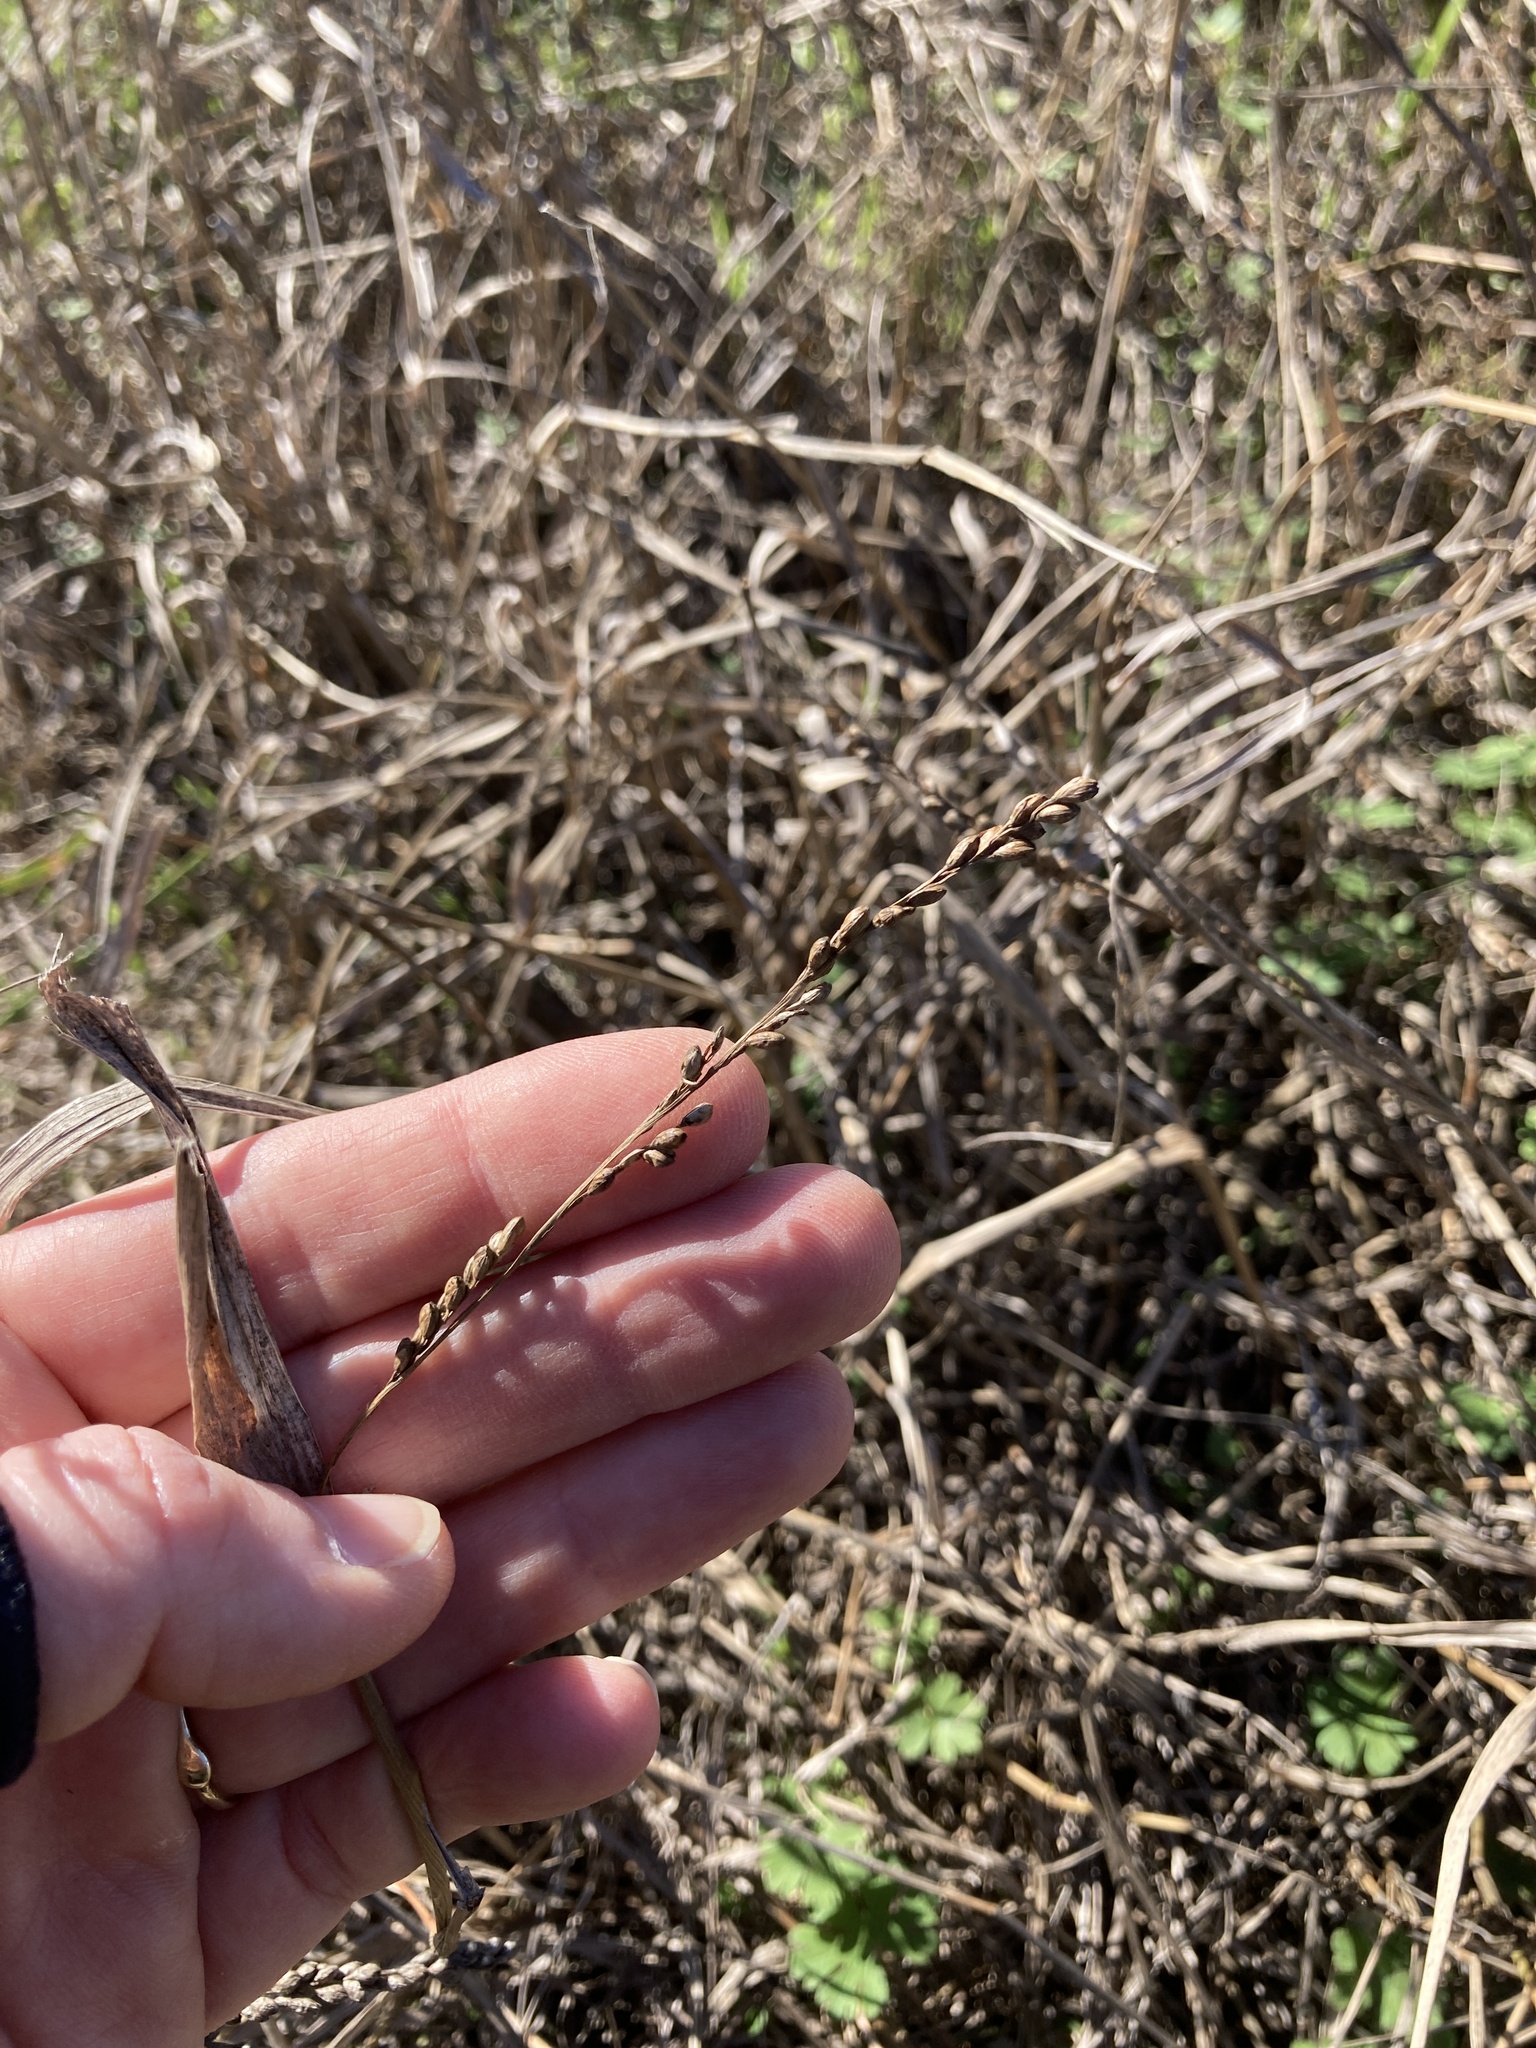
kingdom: Plantae
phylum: Tracheophyta
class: Liliopsida
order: Poales
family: Poaceae
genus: Hopia
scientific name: Hopia obtusa
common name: Vine-mesquite
